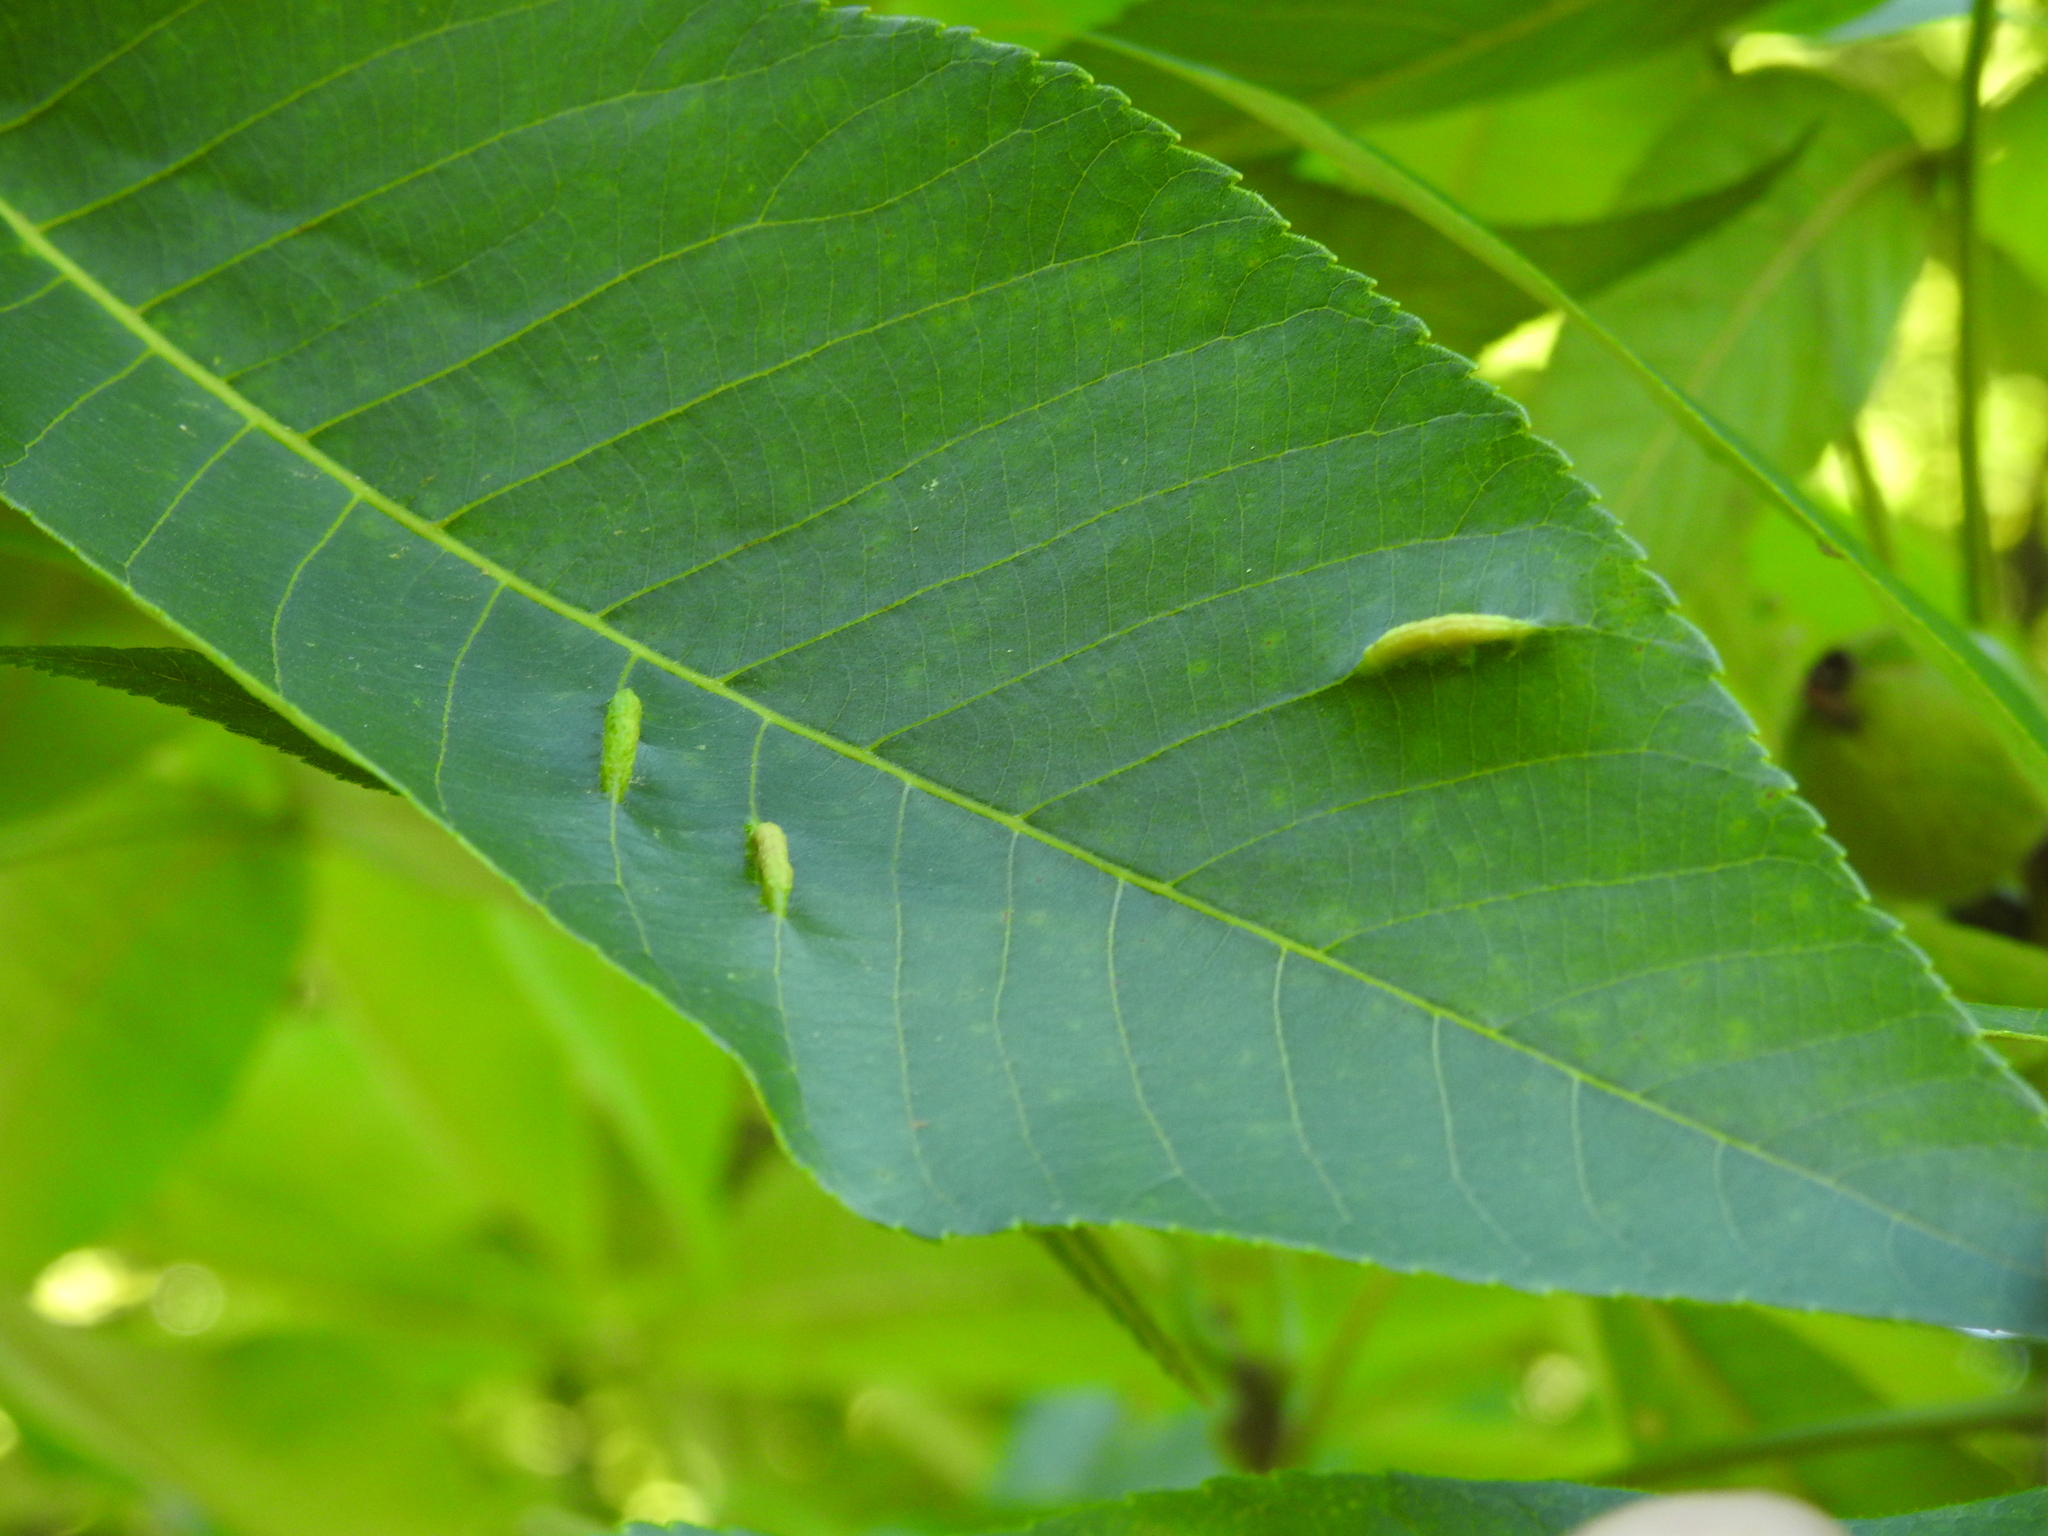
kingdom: Animalia
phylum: Arthropoda
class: Insecta
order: Hemiptera
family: Phylloxeridae
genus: Phylloxera
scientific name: Phylloxera caryaevenae
